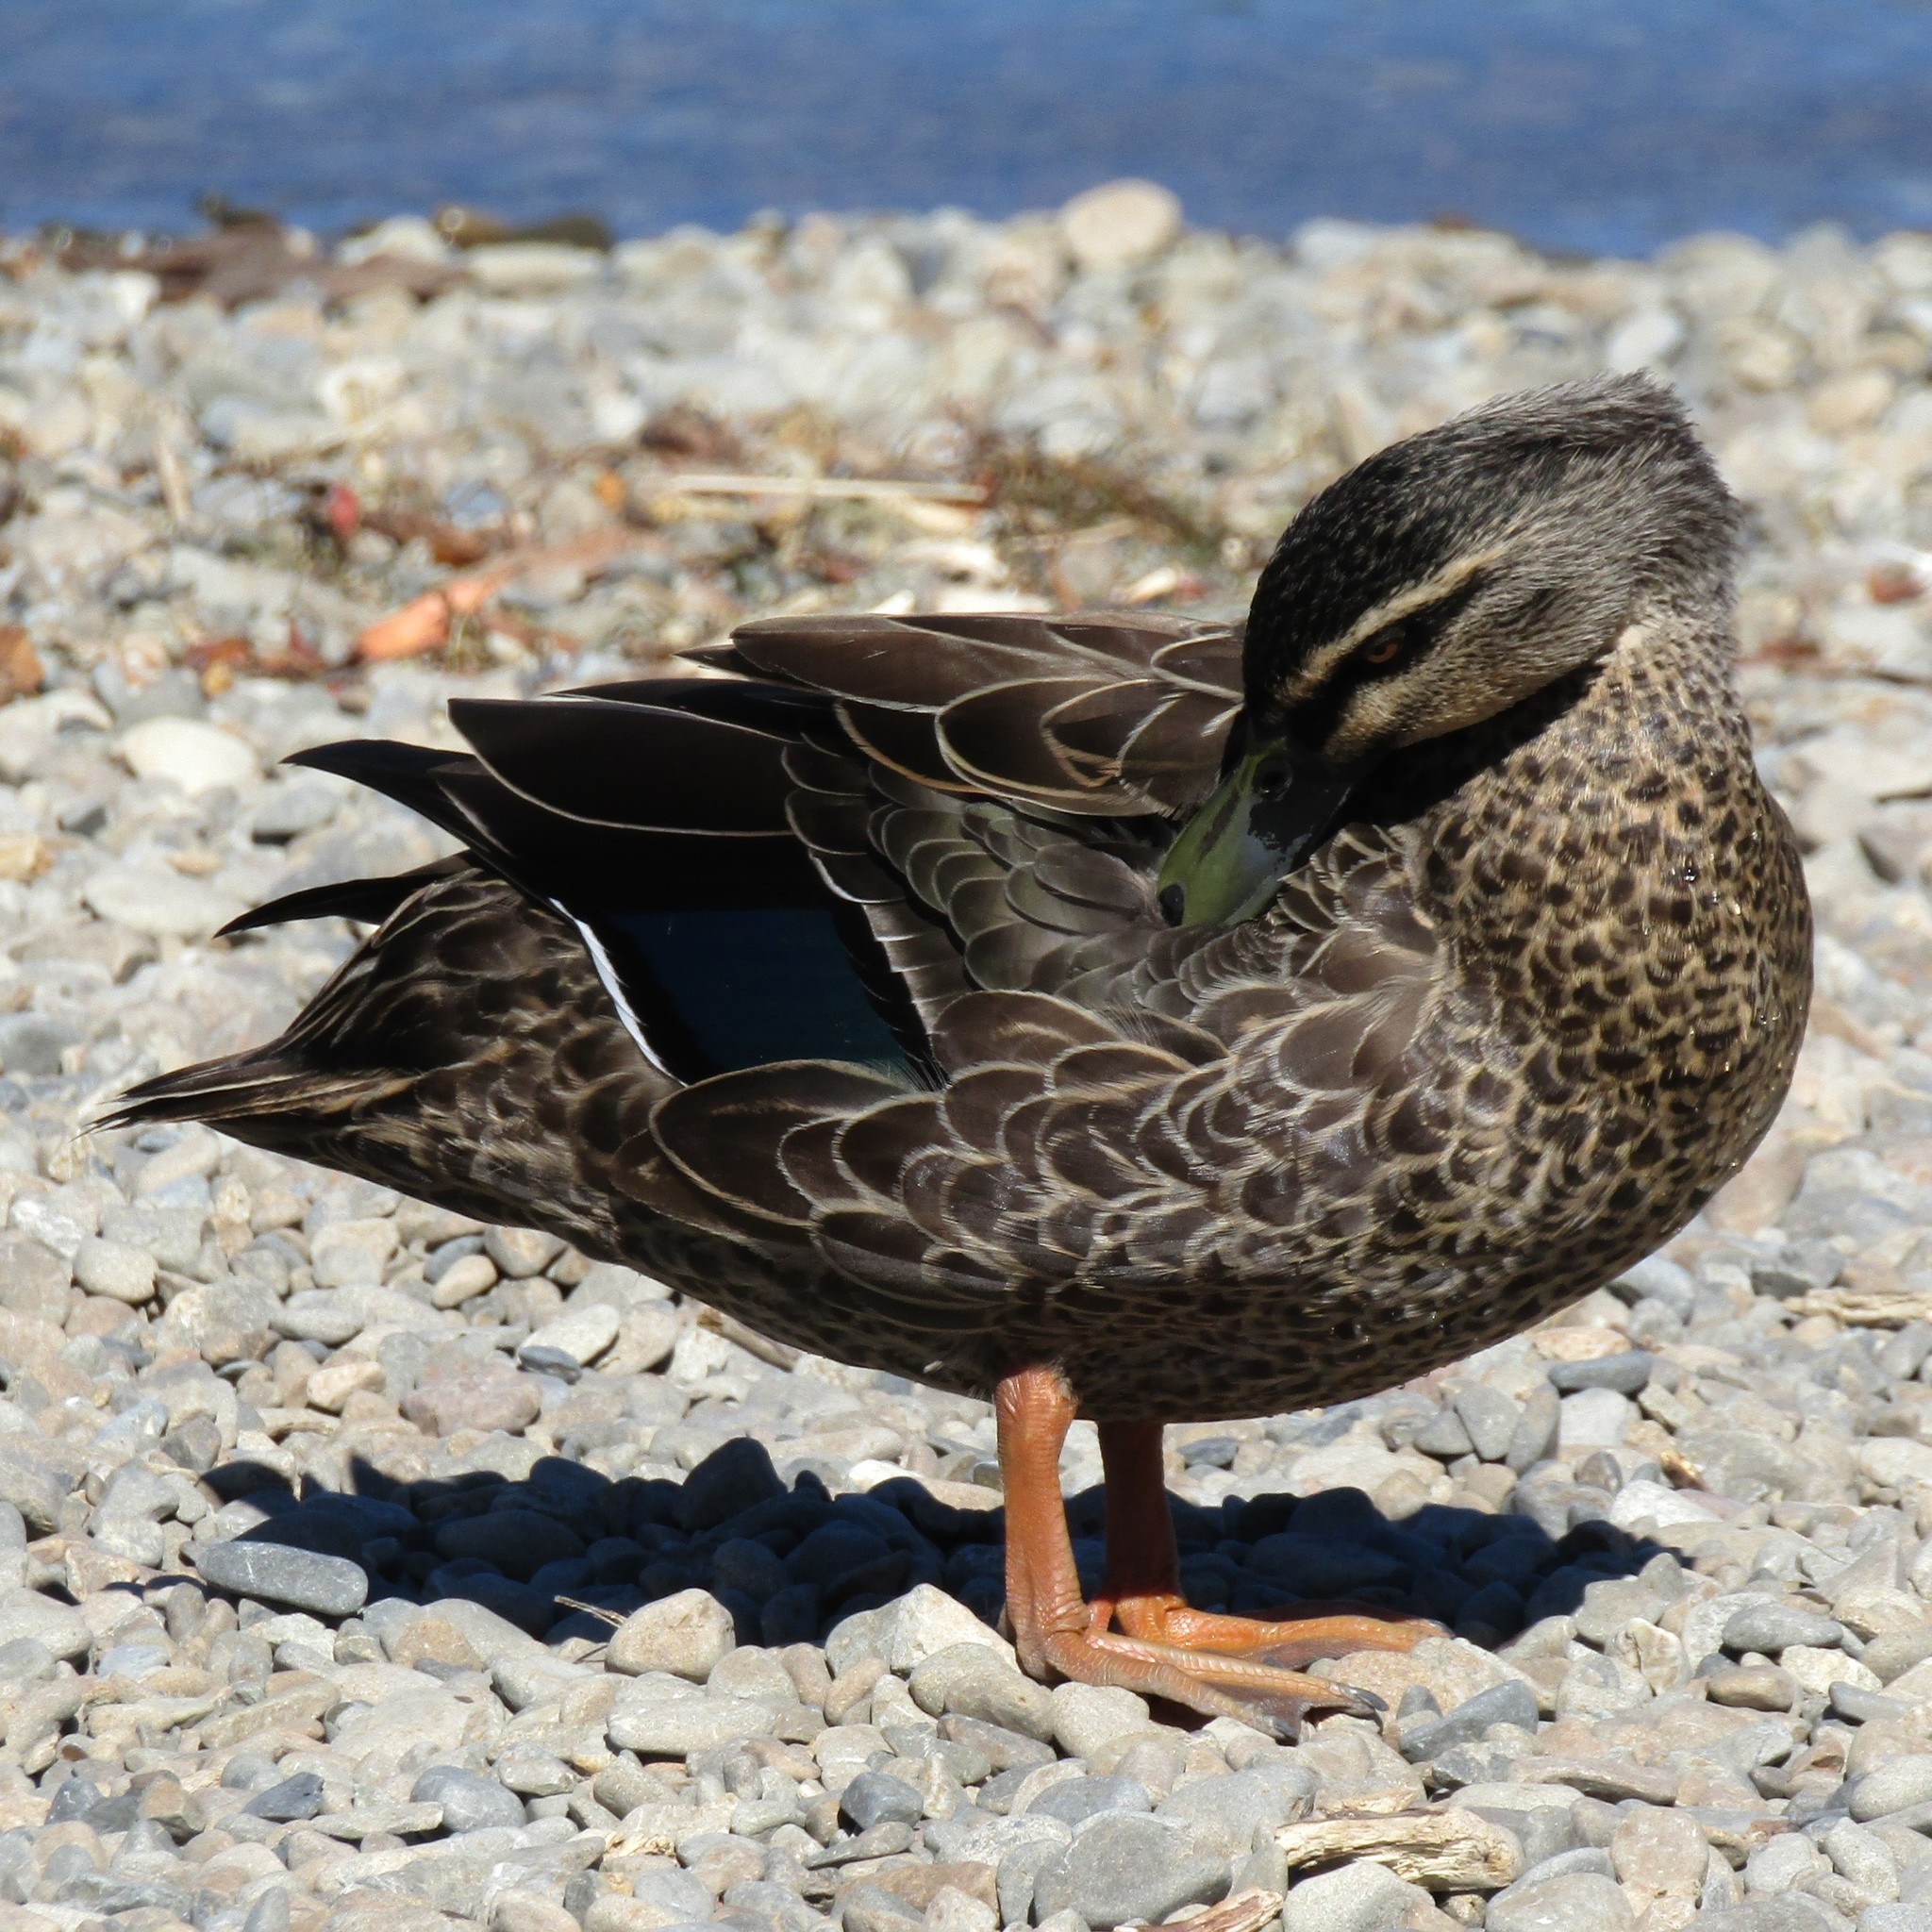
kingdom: Animalia
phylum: Chordata
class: Aves
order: Anseriformes
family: Anatidae
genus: Anas
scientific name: Anas
